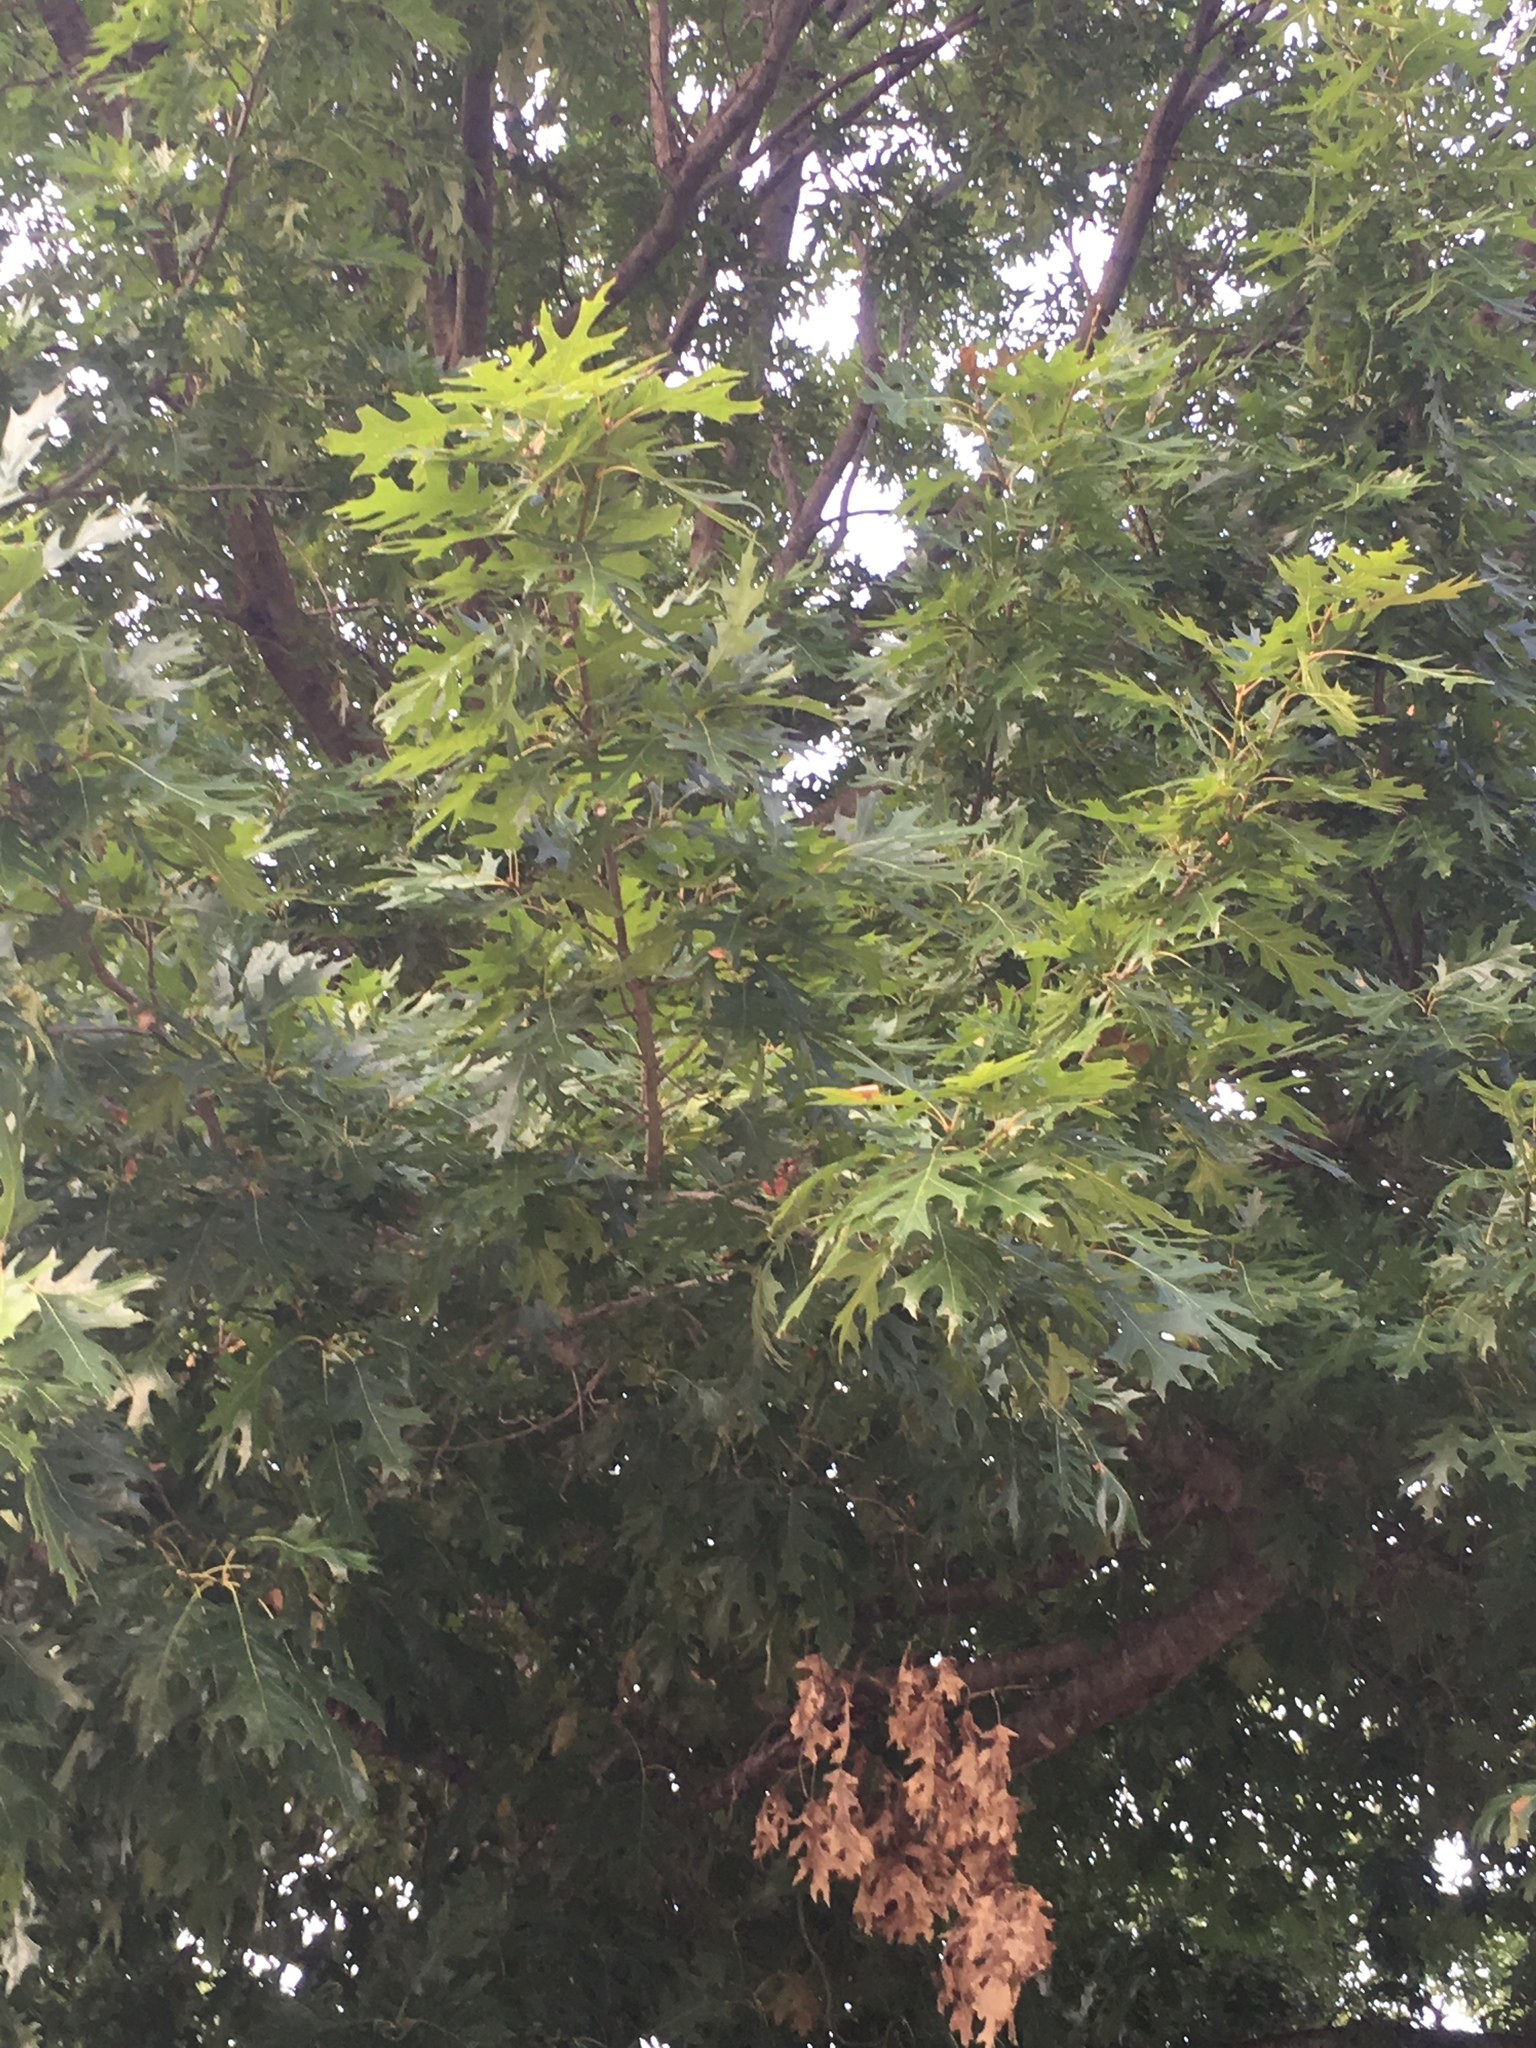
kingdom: Animalia
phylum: Arthropoda
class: Insecta
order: Hymenoptera
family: Cynipidae
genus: Amphibolips
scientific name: Amphibolips
